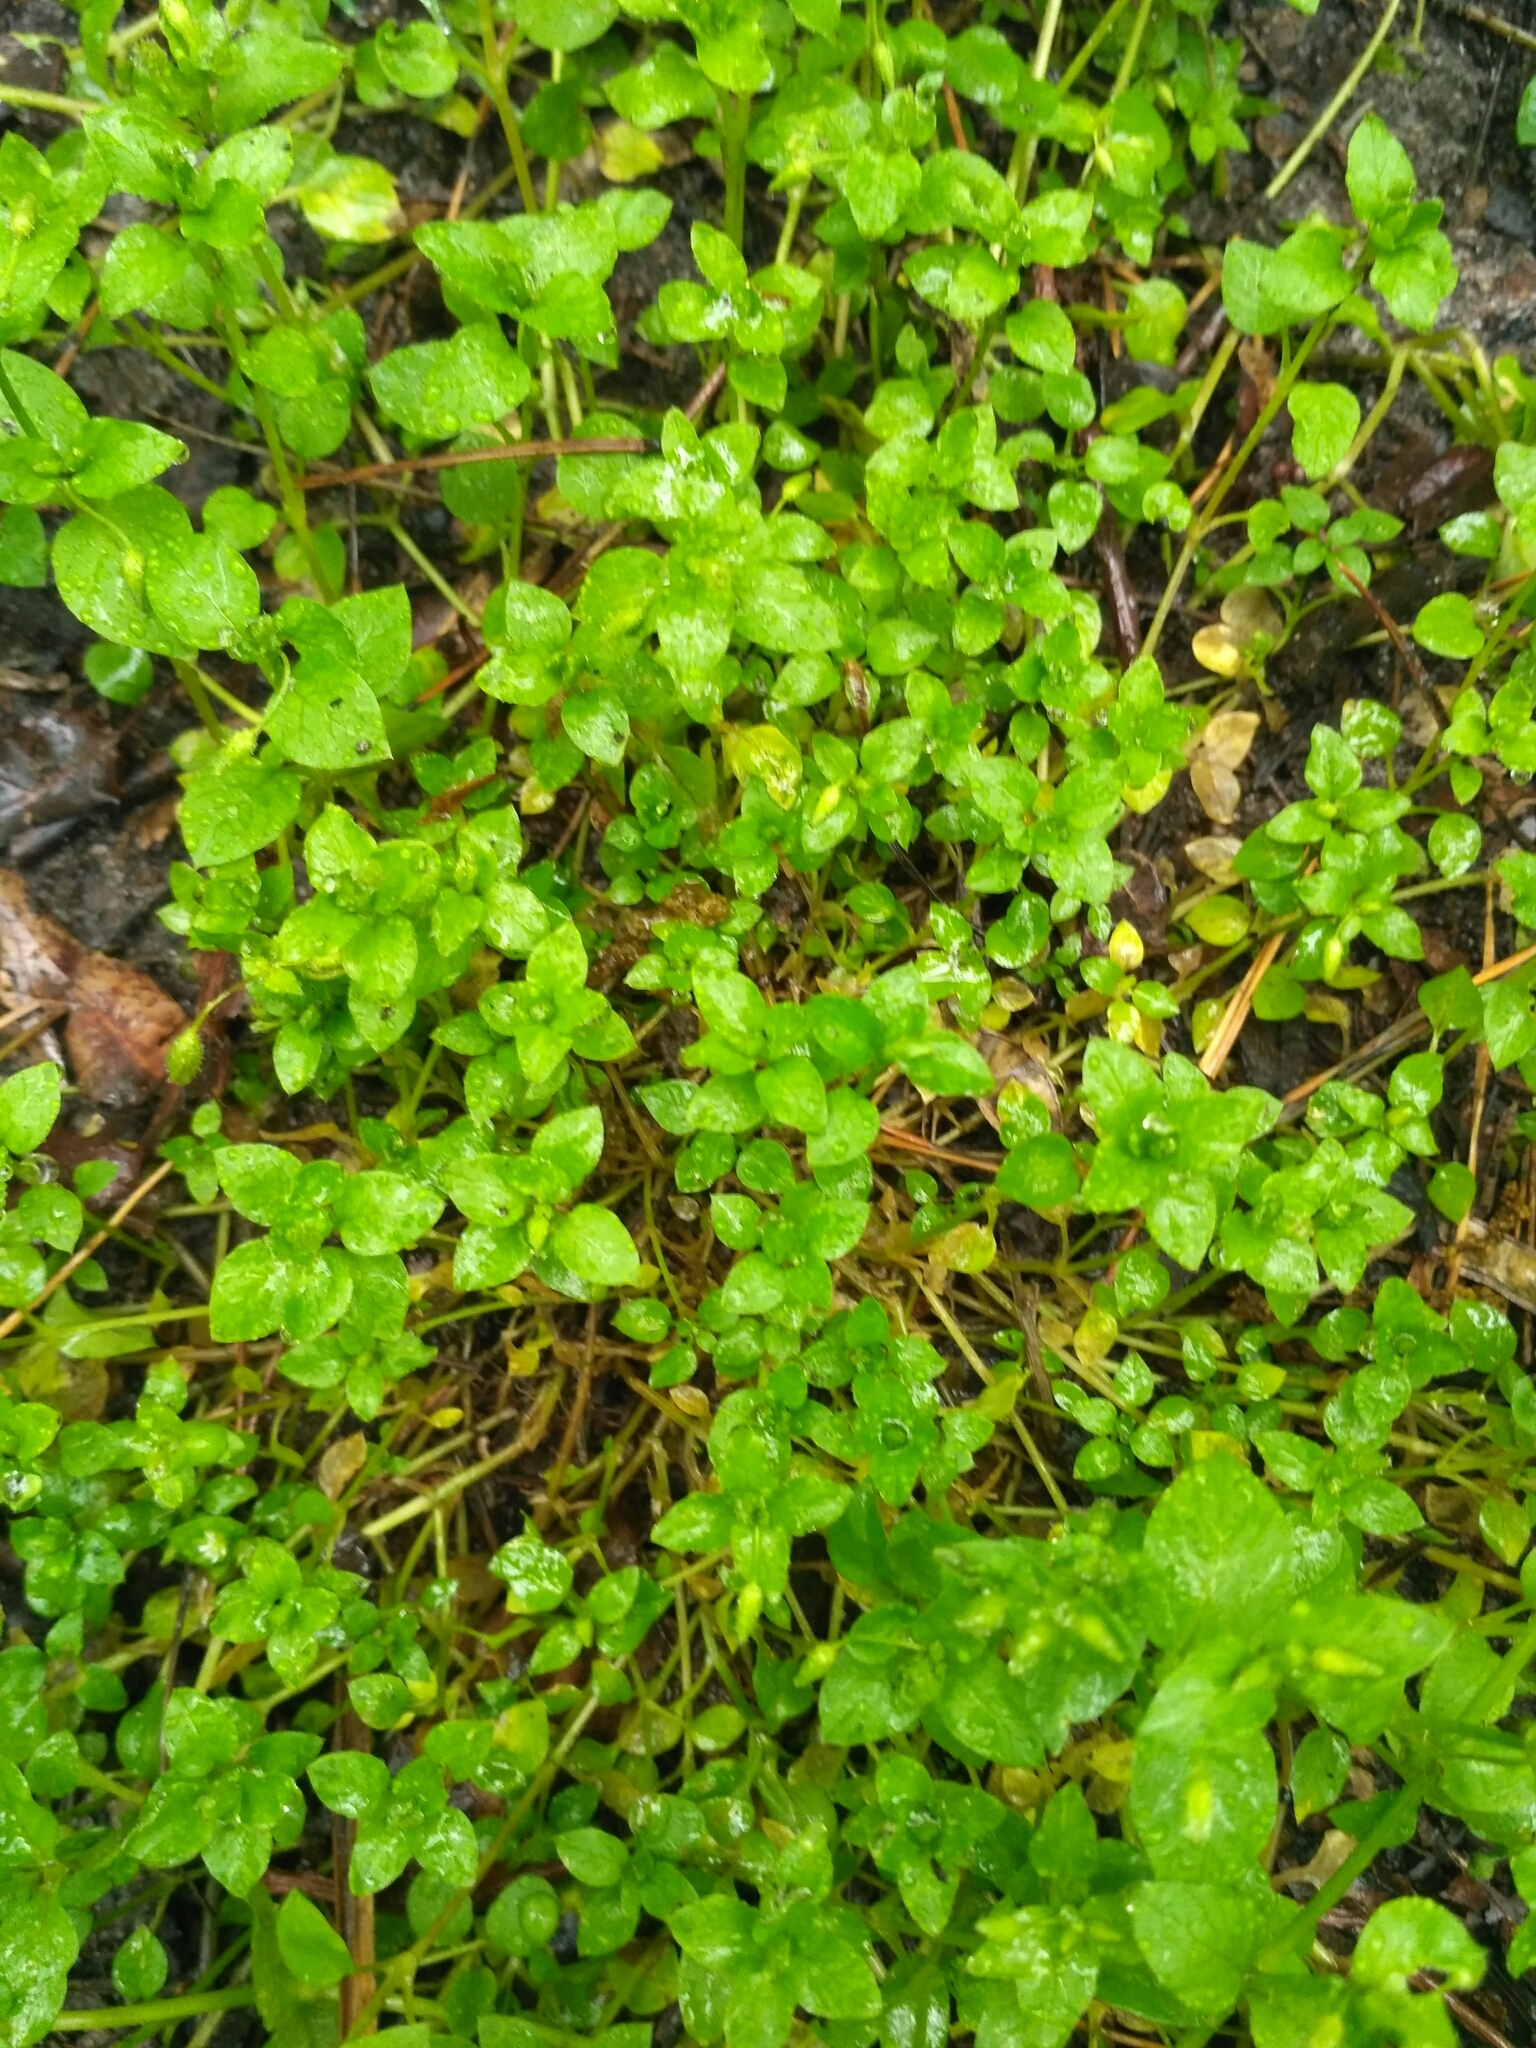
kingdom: Plantae
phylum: Tracheophyta
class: Magnoliopsida
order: Caryophyllales
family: Caryophyllaceae
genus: Stellaria
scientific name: Stellaria media
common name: Common chickweed
